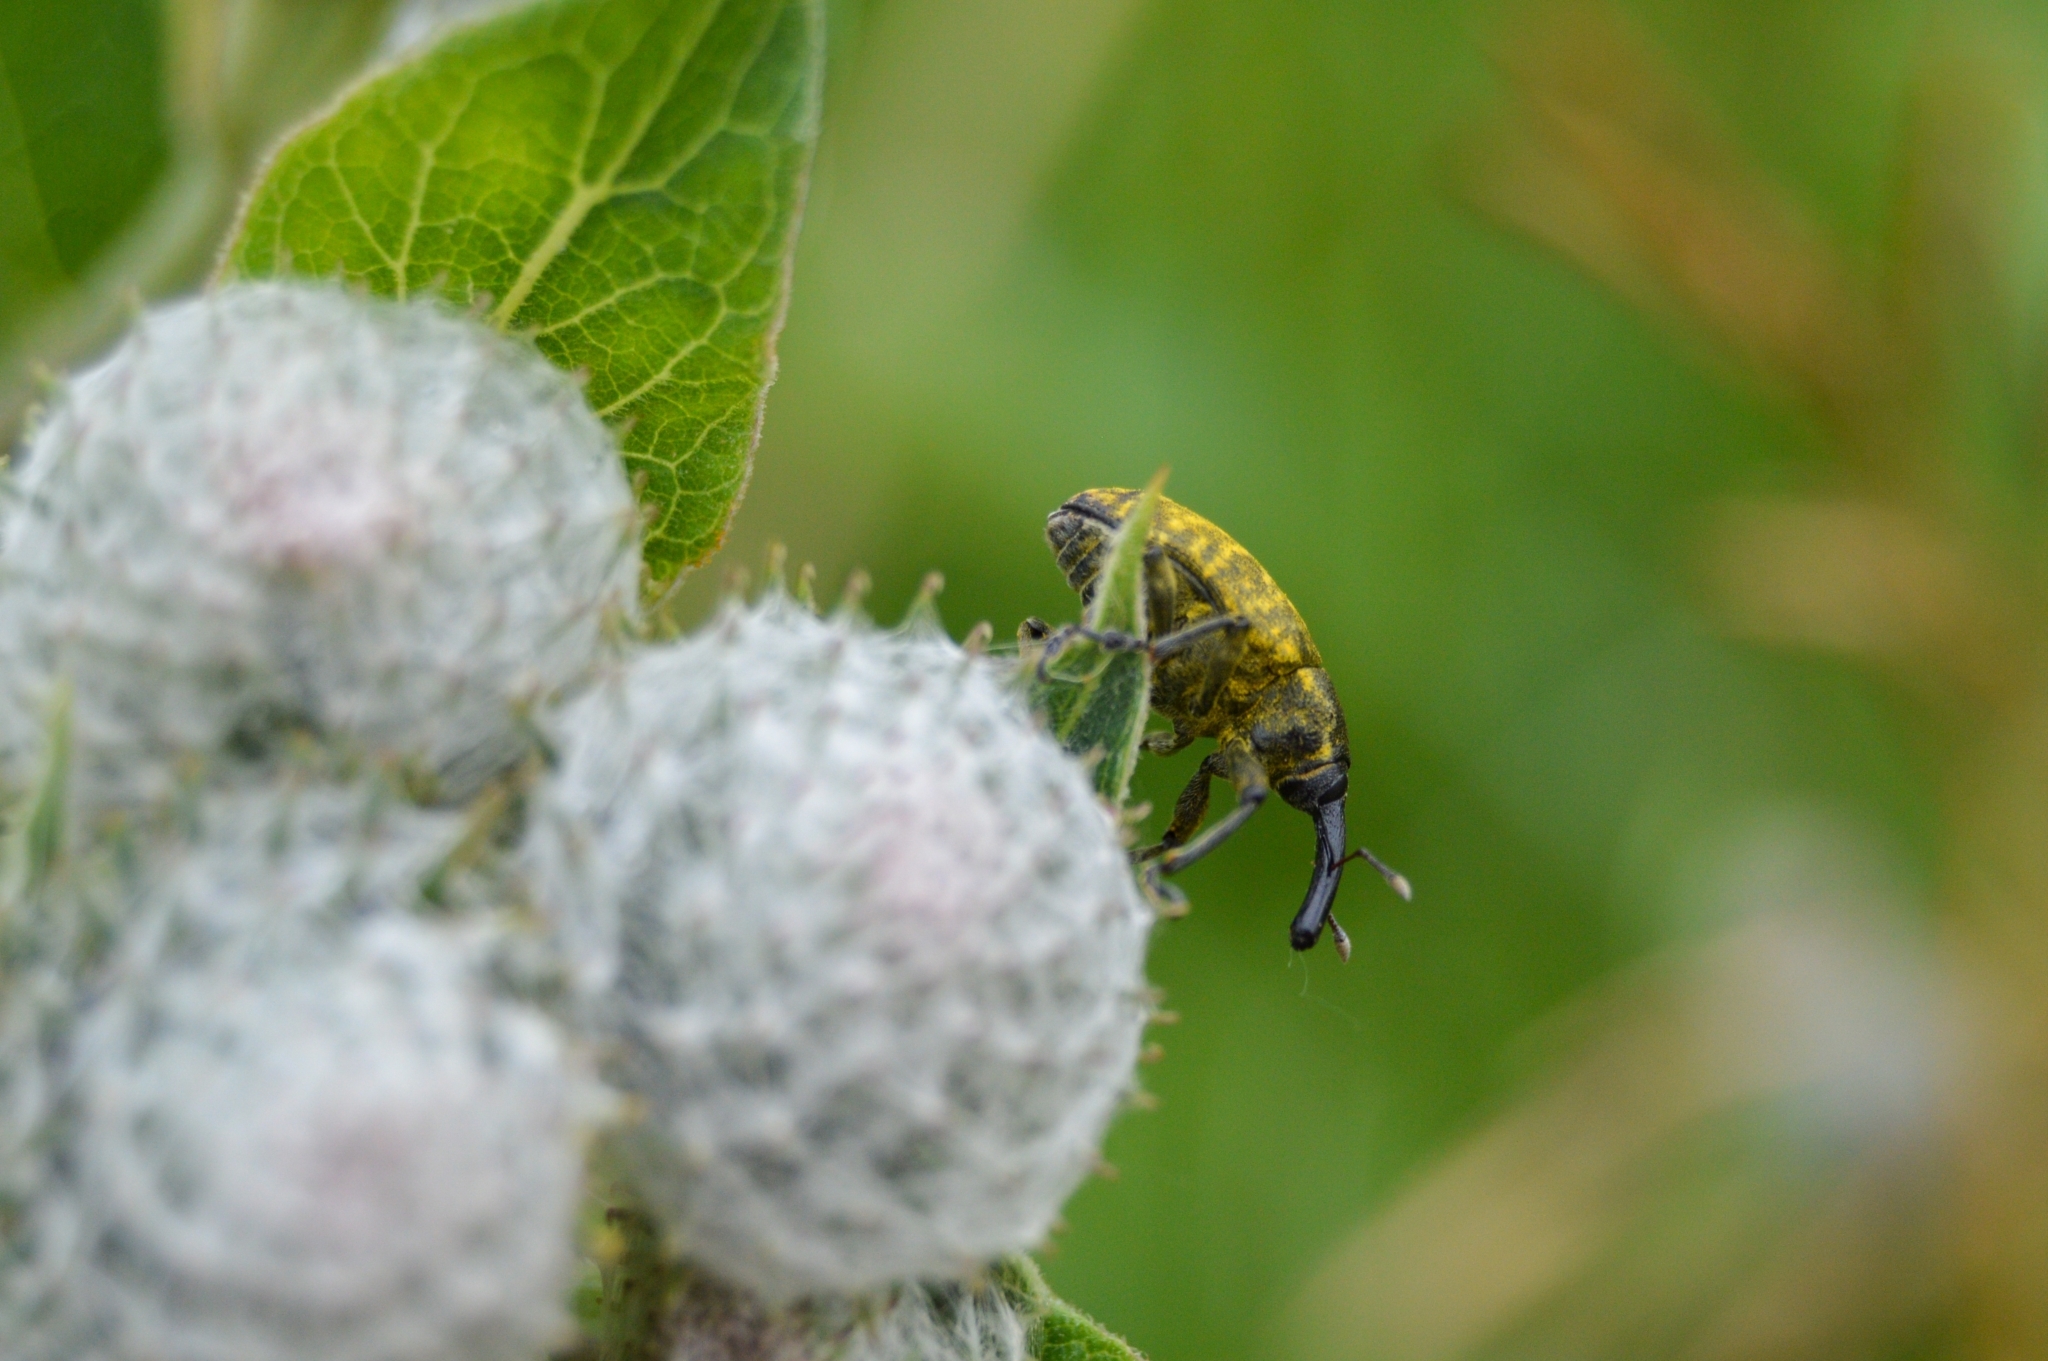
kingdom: Animalia
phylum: Arthropoda
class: Insecta
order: Coleoptera
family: Curculionidae
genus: Larinus
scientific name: Larinus sturnus
